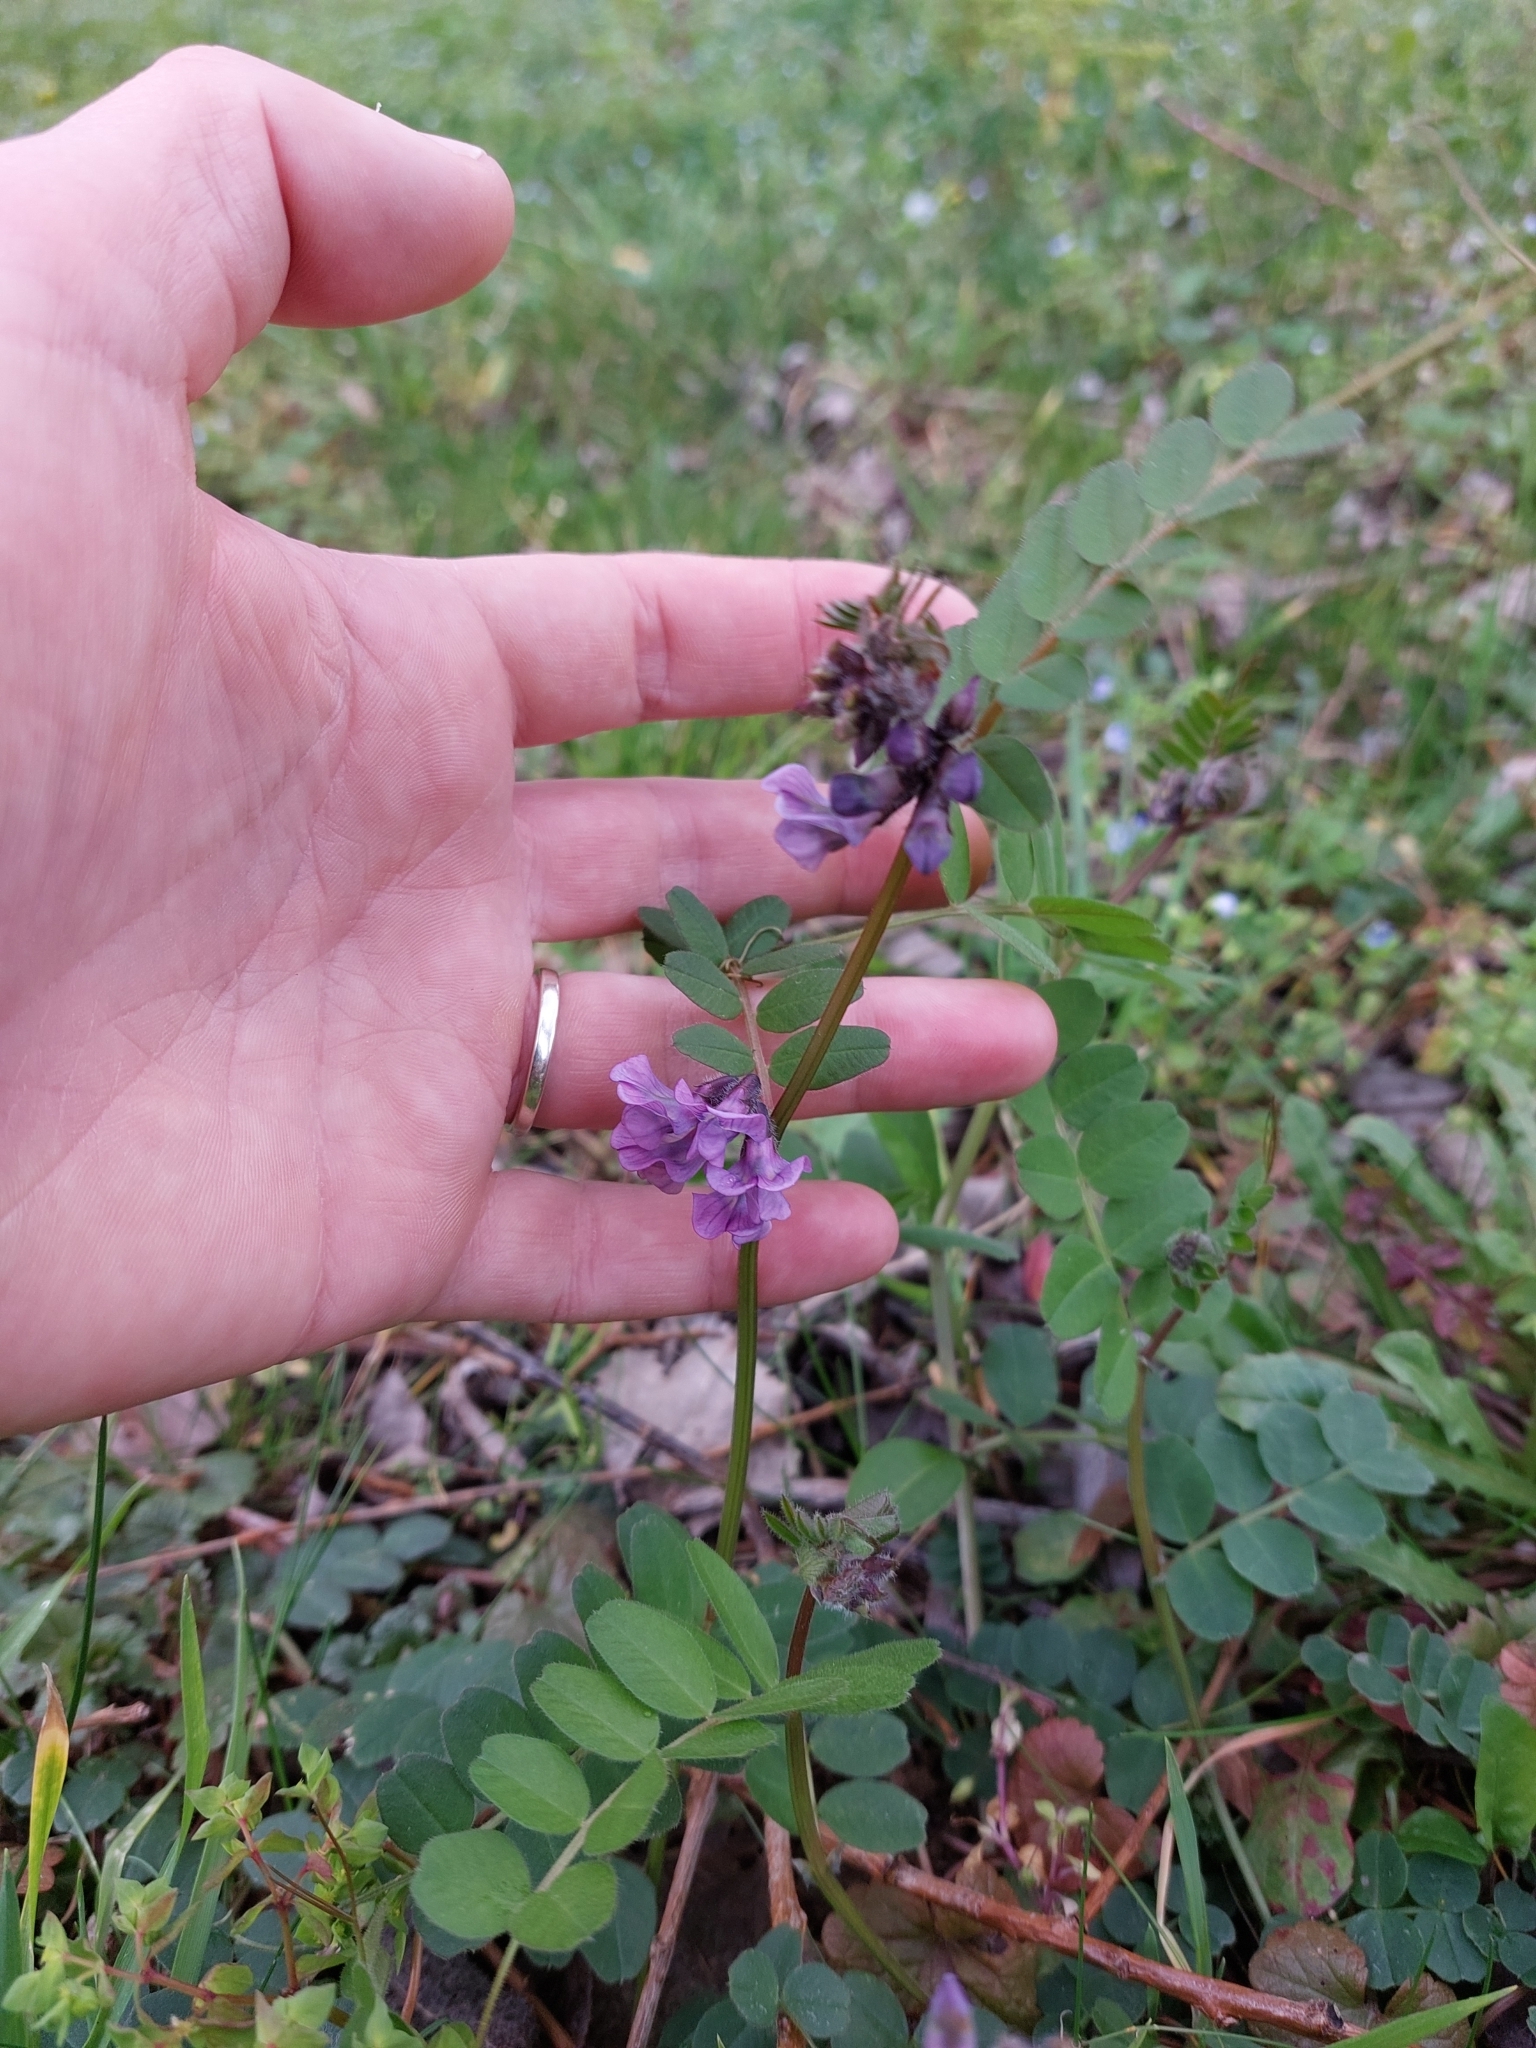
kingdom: Plantae
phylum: Tracheophyta
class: Magnoliopsida
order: Fabales
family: Fabaceae
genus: Vicia
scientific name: Vicia sepium
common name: Bush vetch
